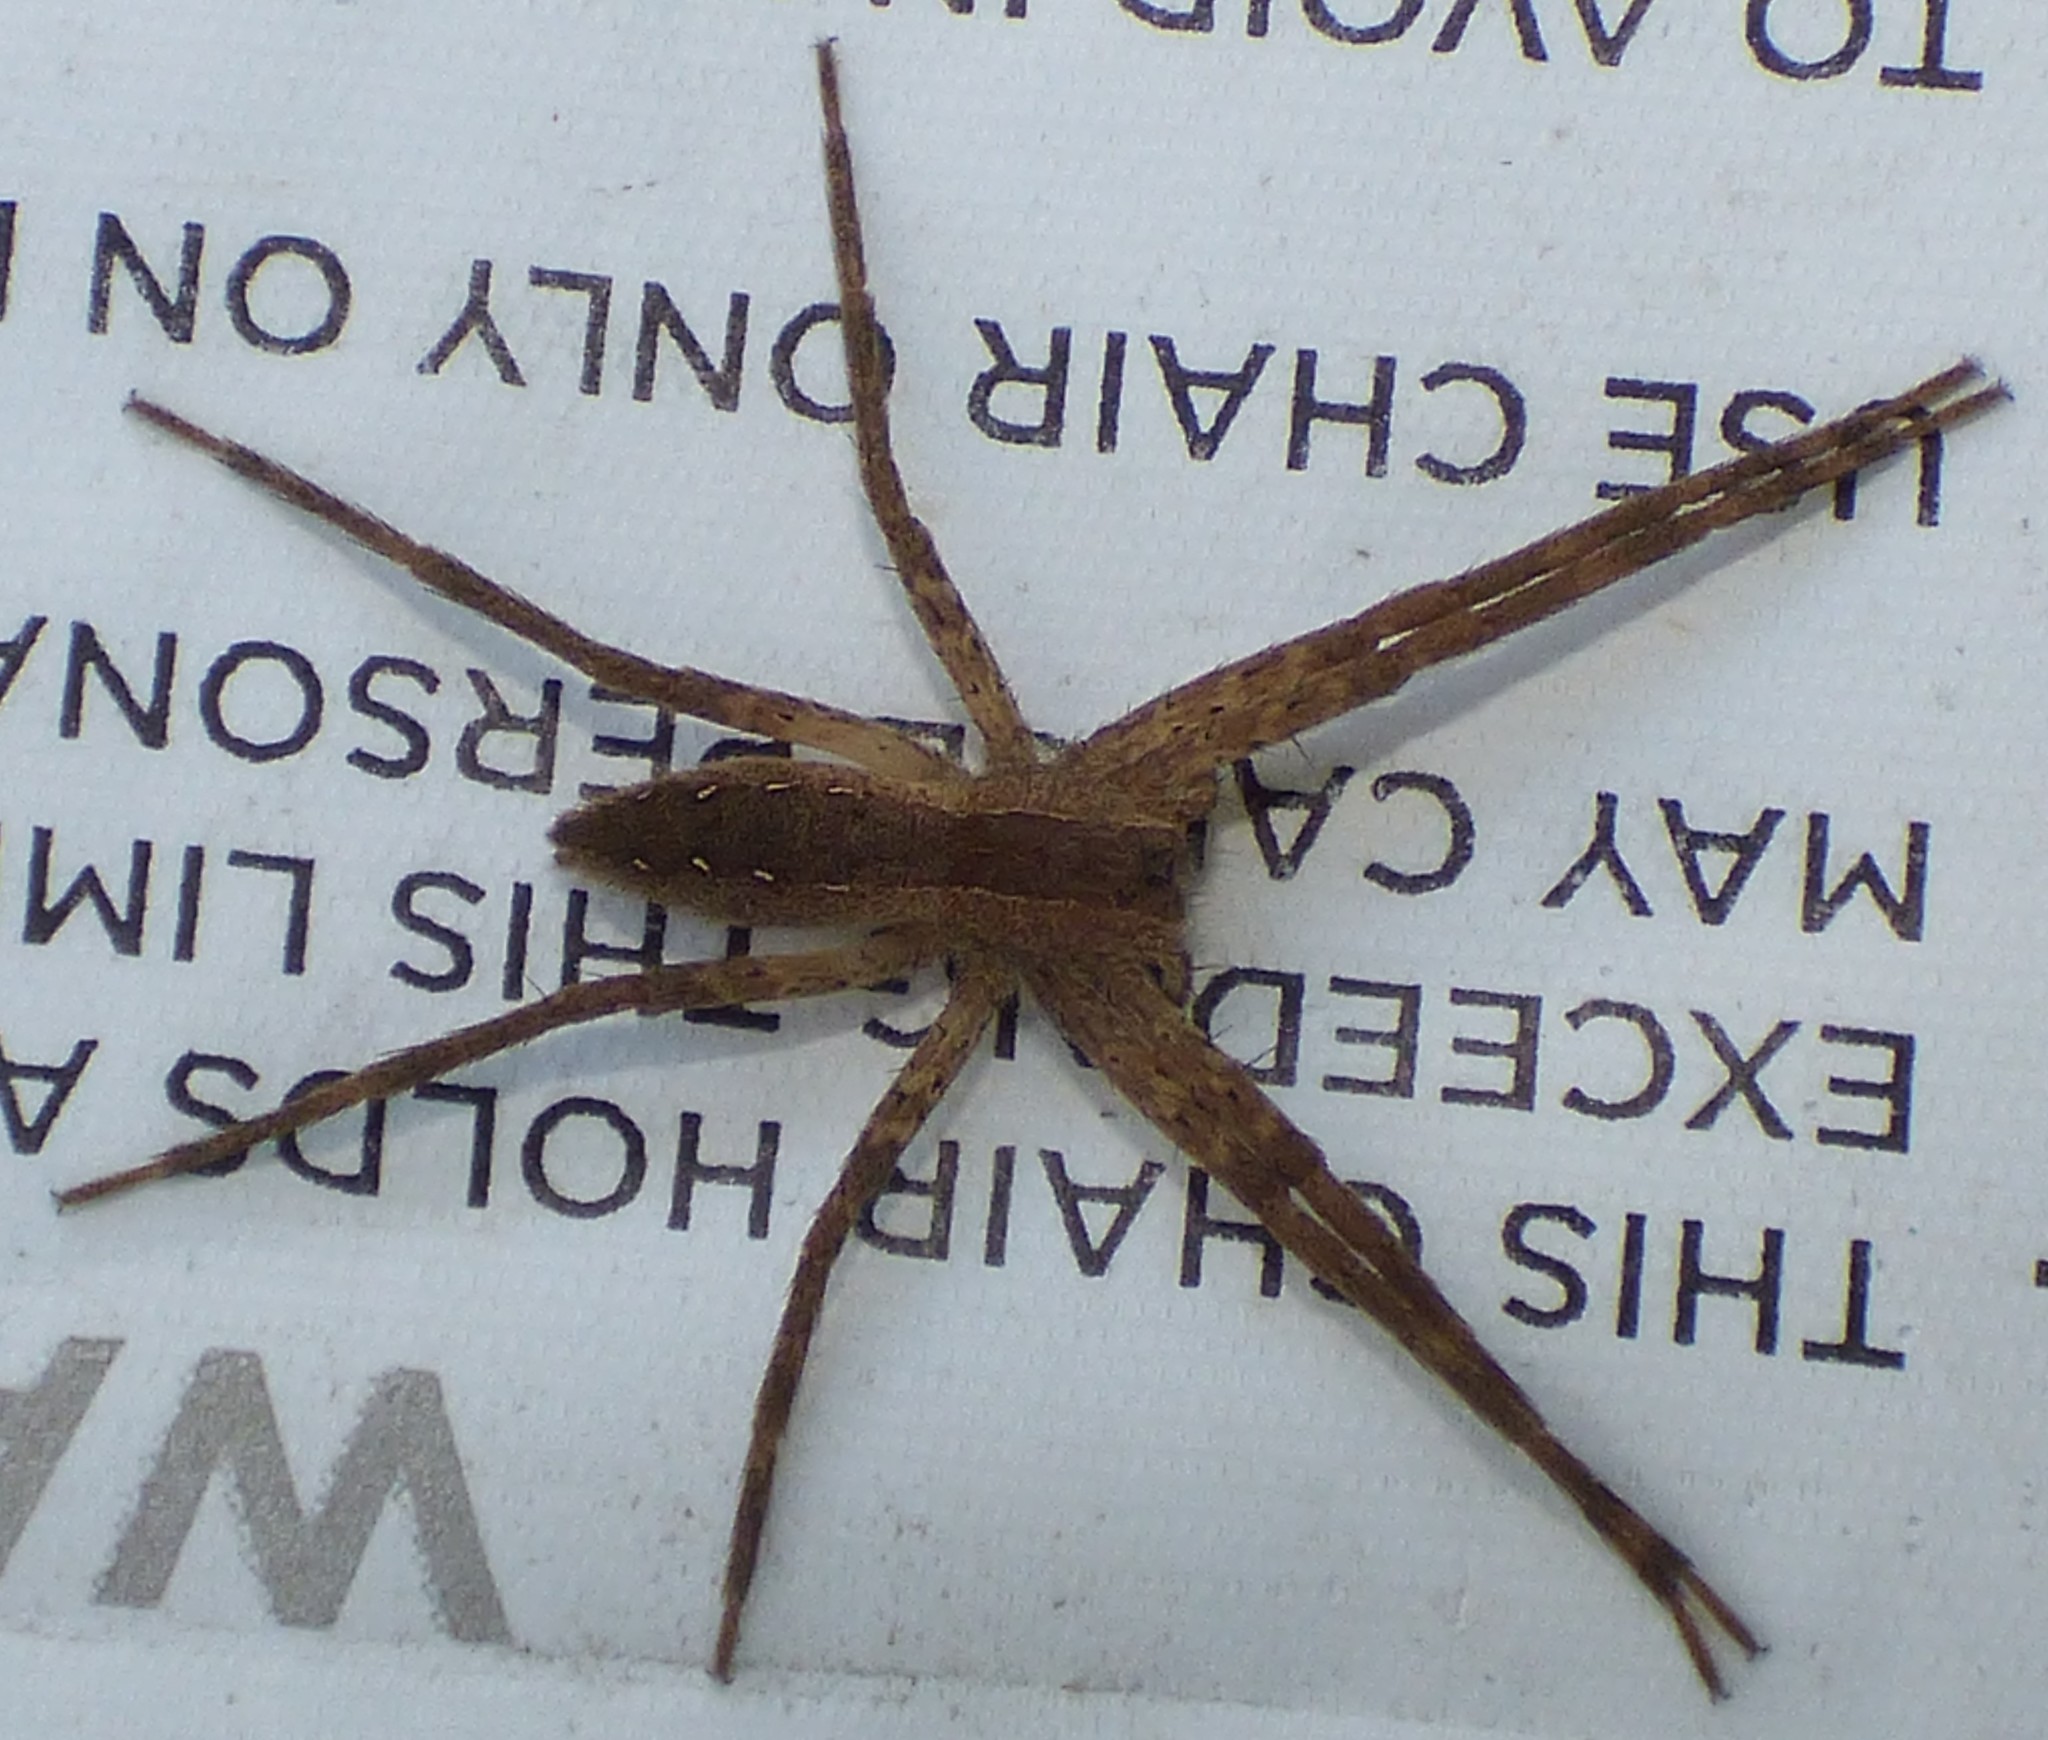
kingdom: Animalia
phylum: Arthropoda
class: Arachnida
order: Araneae
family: Pisauridae
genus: Pisaurina
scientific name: Pisaurina mira
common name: American nursery web spider
